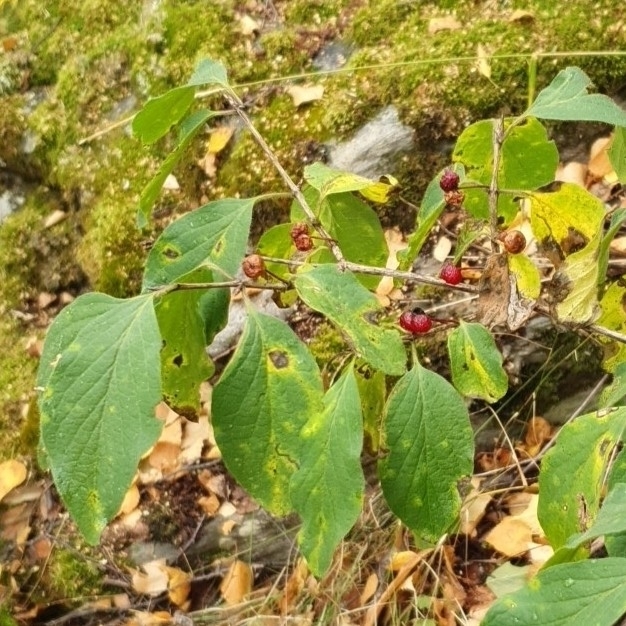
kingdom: Plantae
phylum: Tracheophyta
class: Magnoliopsida
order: Dipsacales
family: Caprifoliaceae
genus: Lonicera
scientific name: Lonicera xylosteum
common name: Fly honeysuckle
